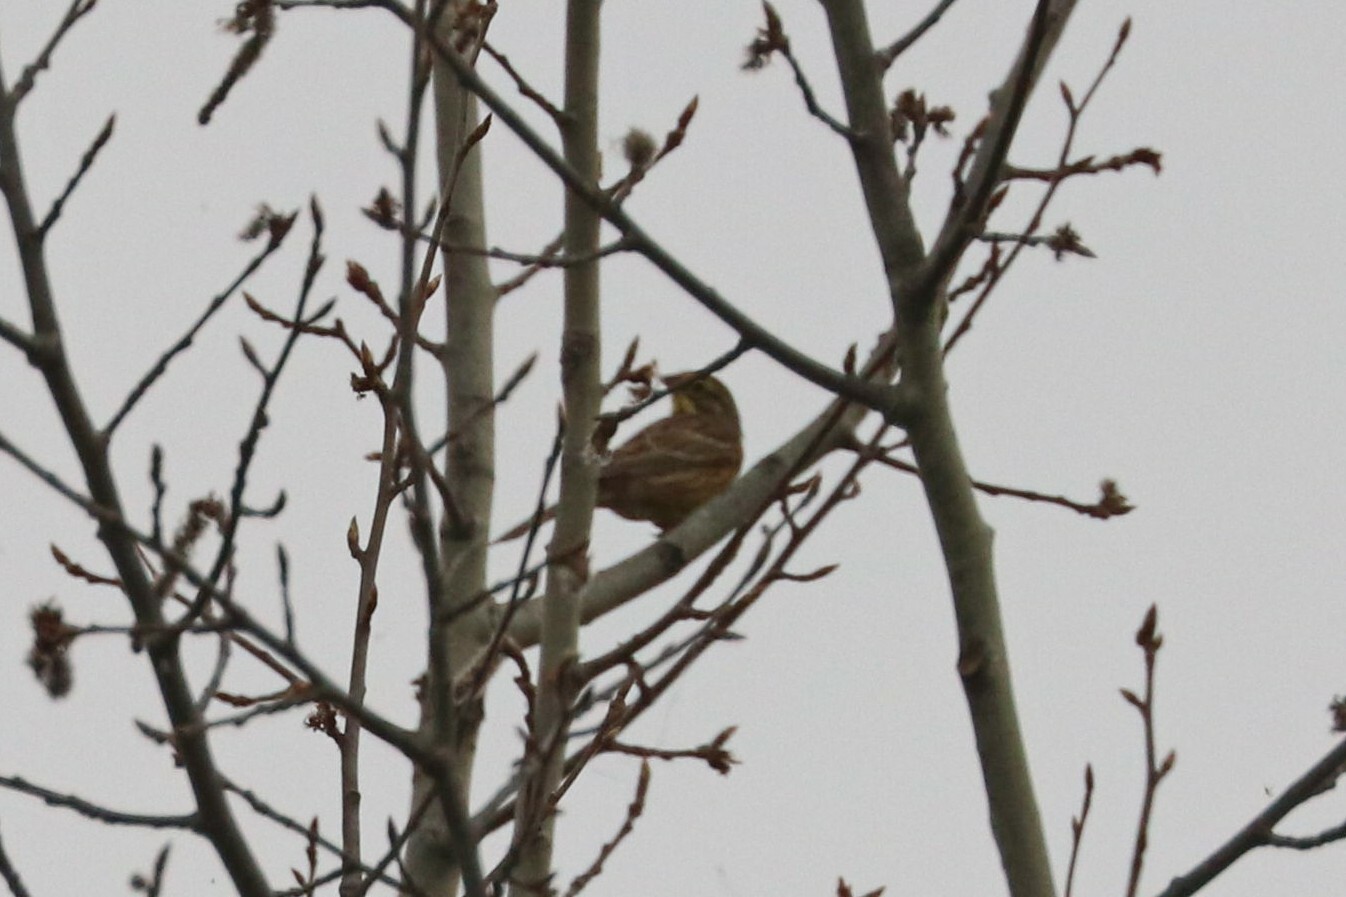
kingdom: Animalia
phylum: Chordata
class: Aves
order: Passeriformes
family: Emberizidae
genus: Emberiza
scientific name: Emberiza citrinella
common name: Yellowhammer
